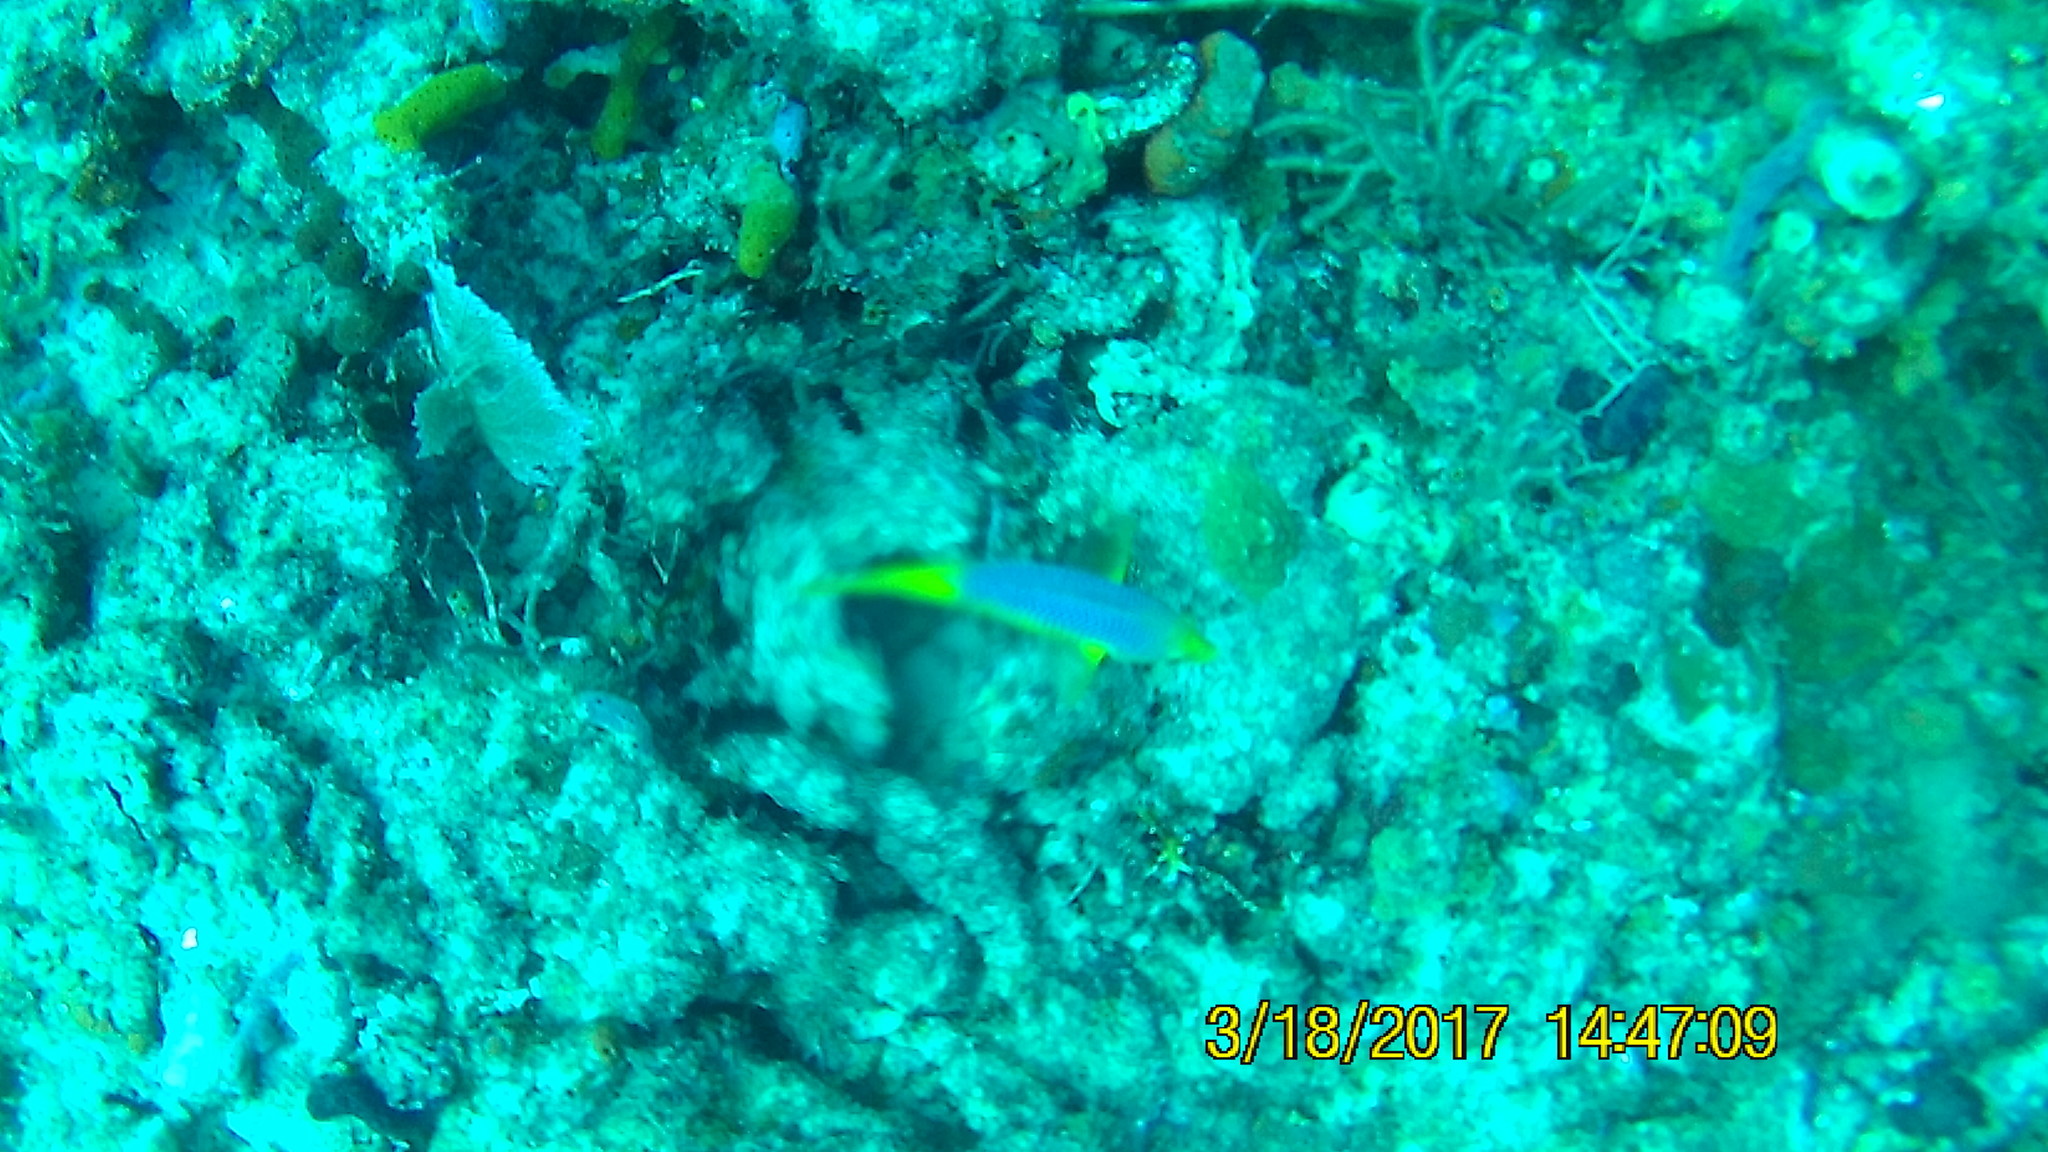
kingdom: Animalia
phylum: Chordata
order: Perciformes
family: Labridae
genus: Bodianus
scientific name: Bodianus rufus
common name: Spanish hogfish
